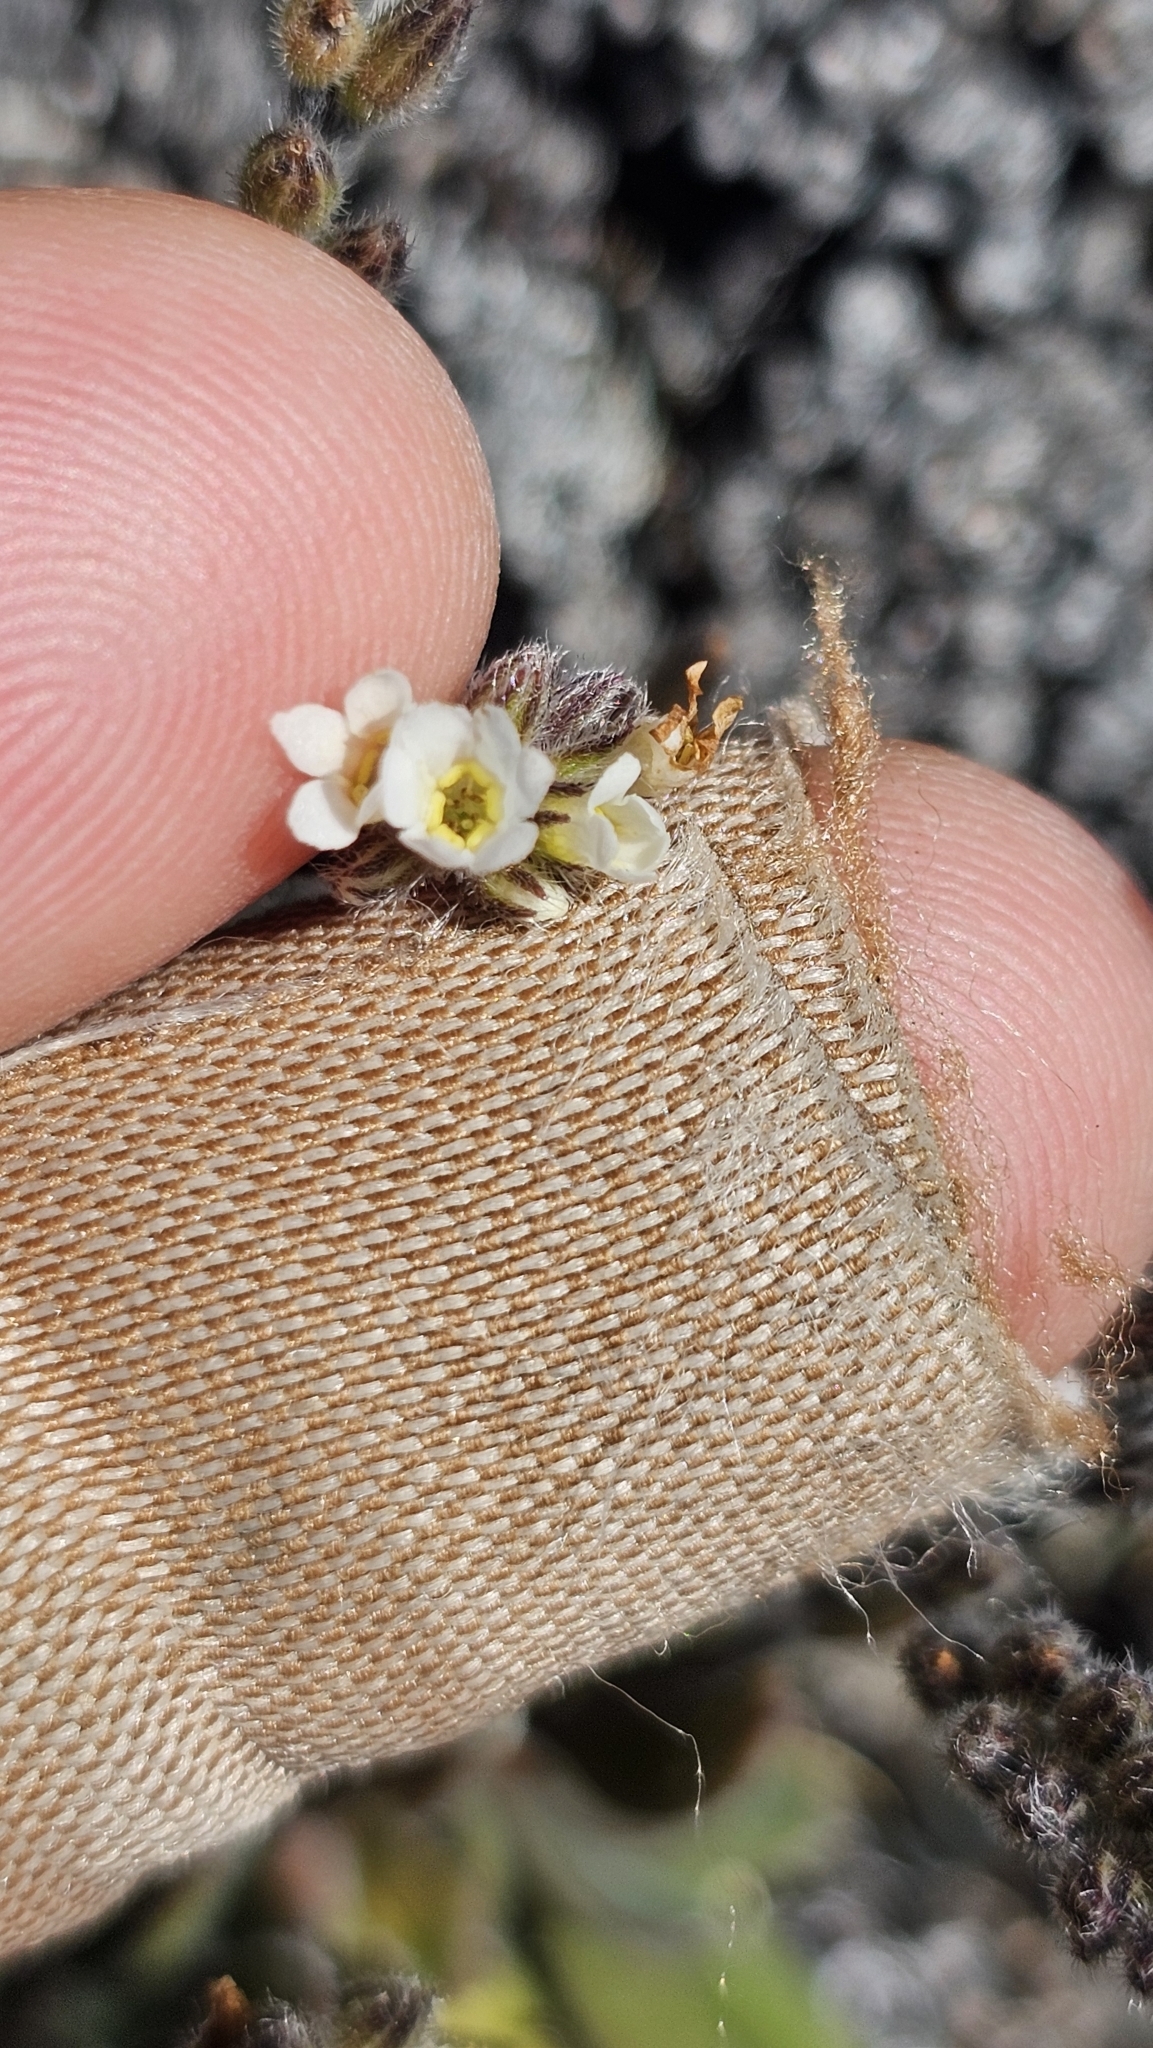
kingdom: Plantae
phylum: Tracheophyta
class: Magnoliopsida
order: Boraginales
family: Boraginaceae
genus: Myosotis
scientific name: Myosotis saxatilis
